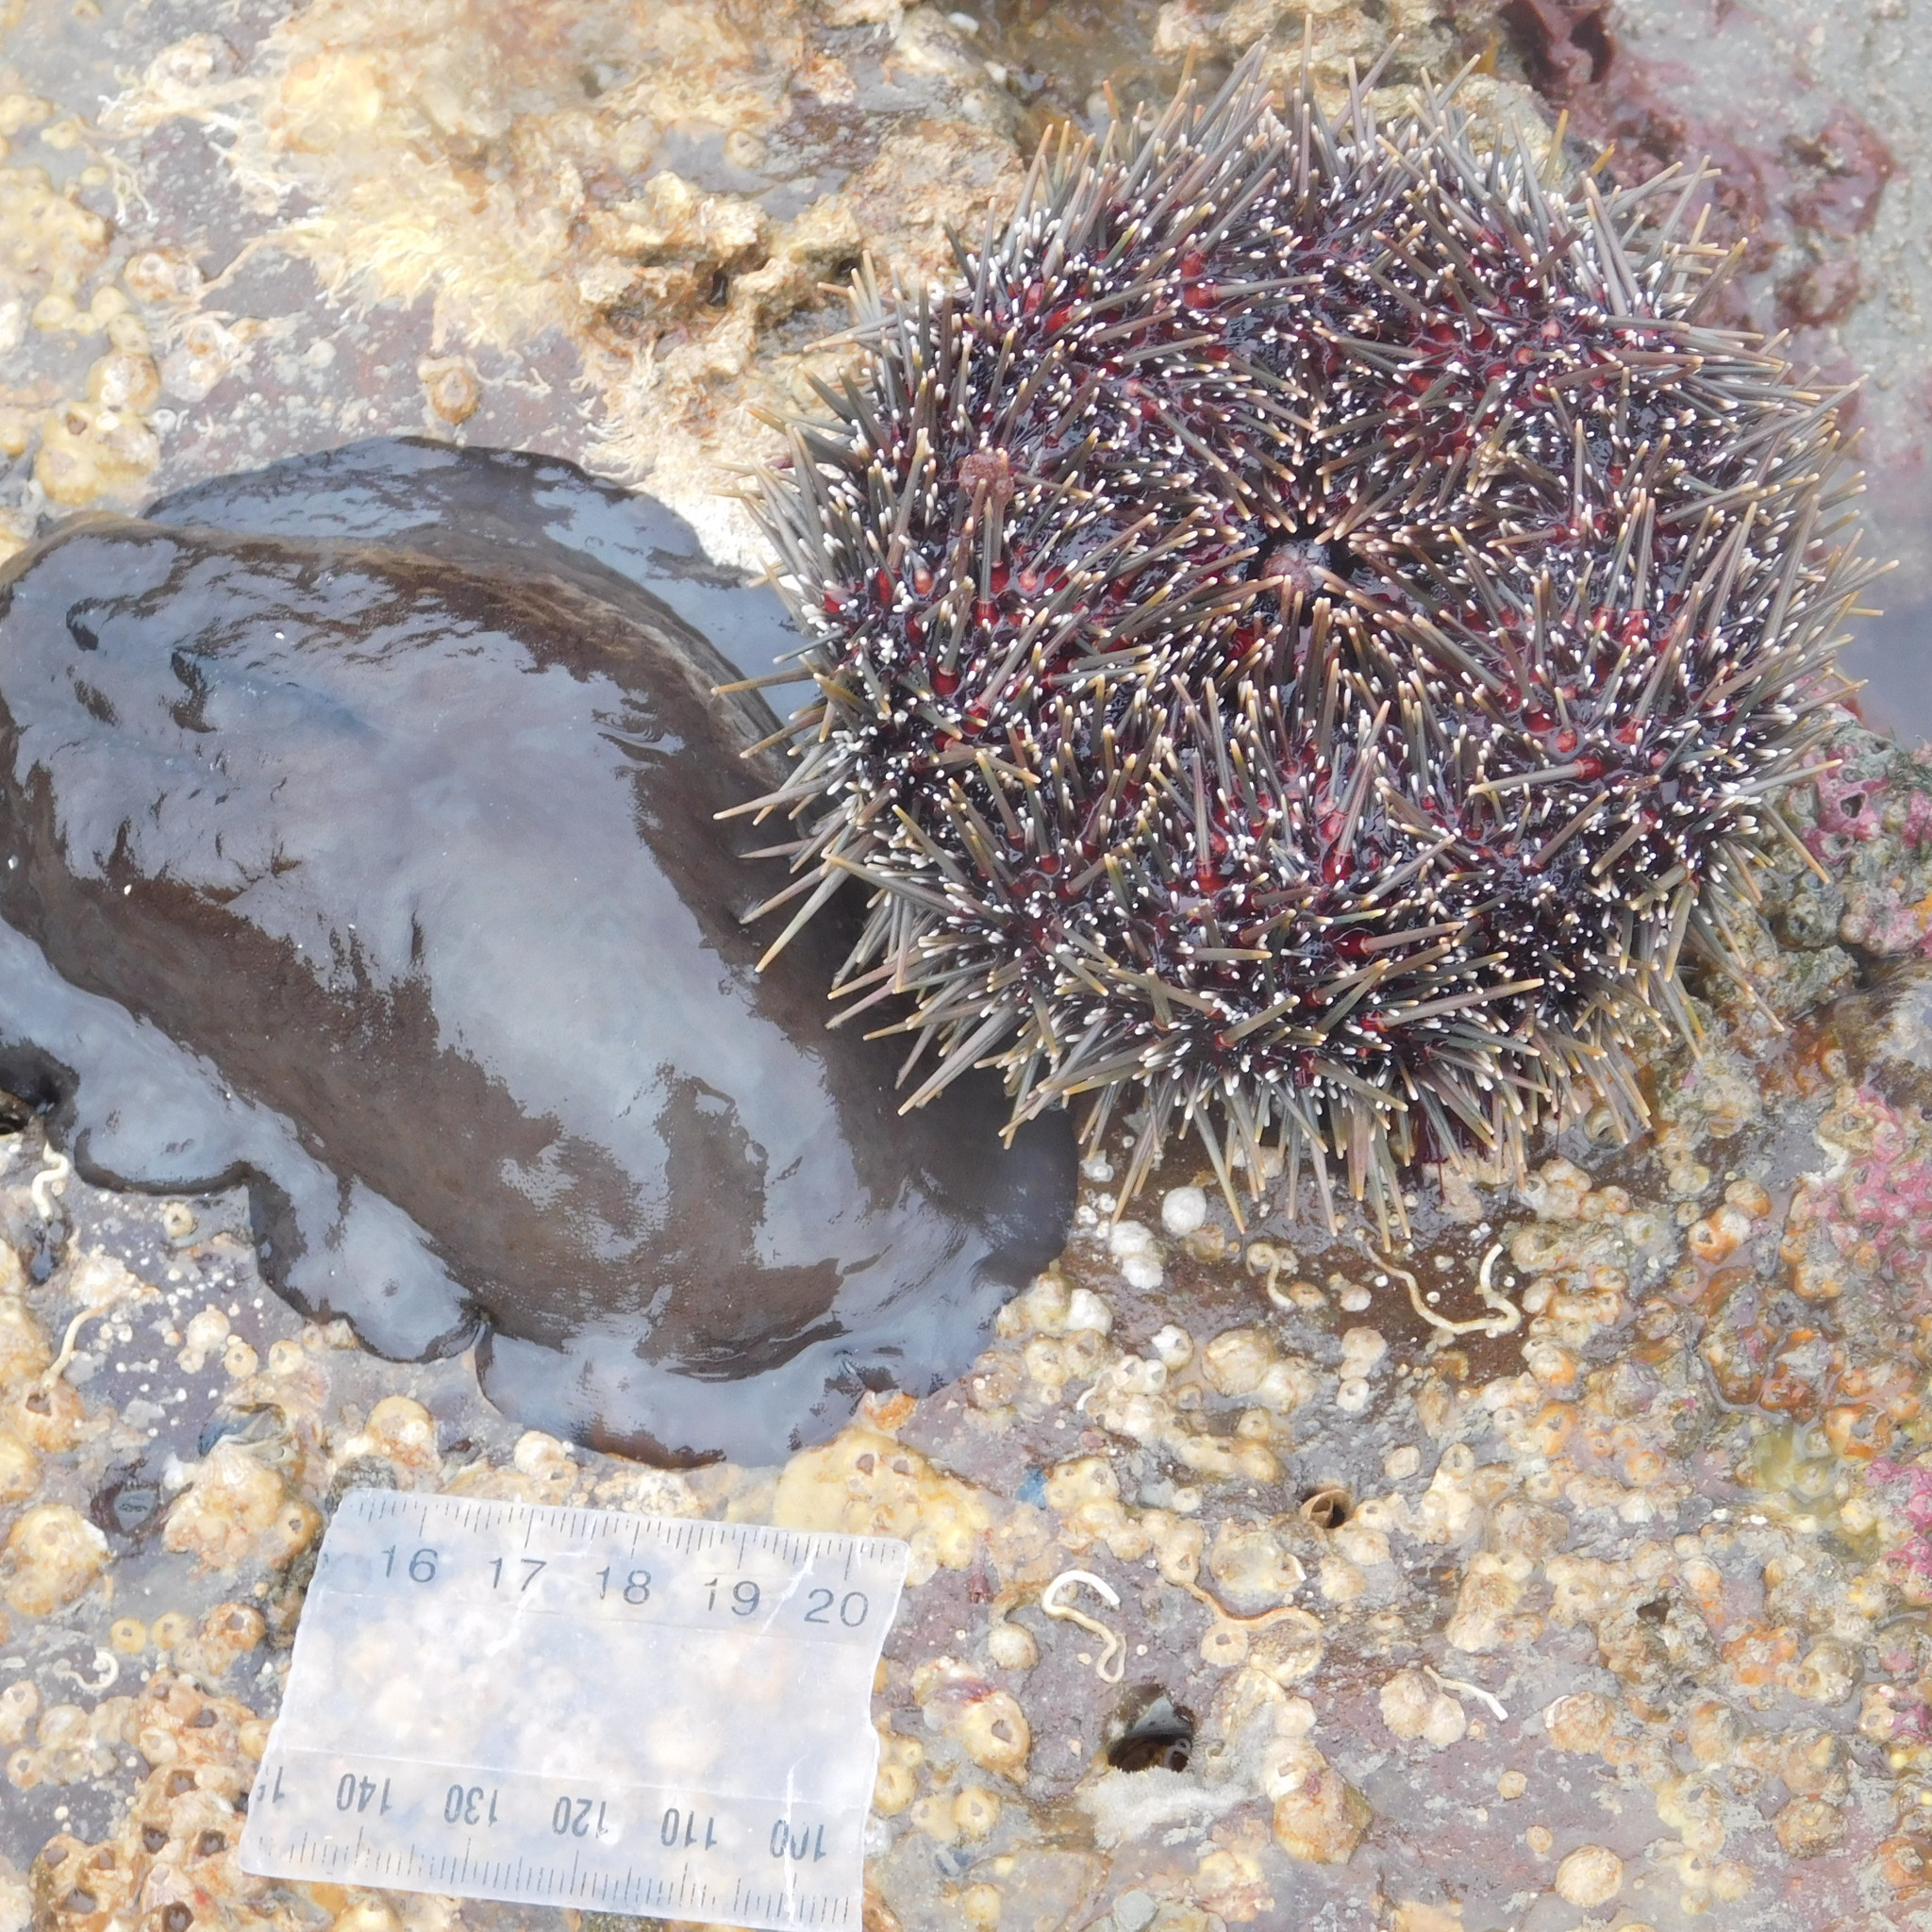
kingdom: Animalia
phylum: Mollusca
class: Gastropoda
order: Lepetellida
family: Fissurellidae
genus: Scutus
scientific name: Scutus breviculus
